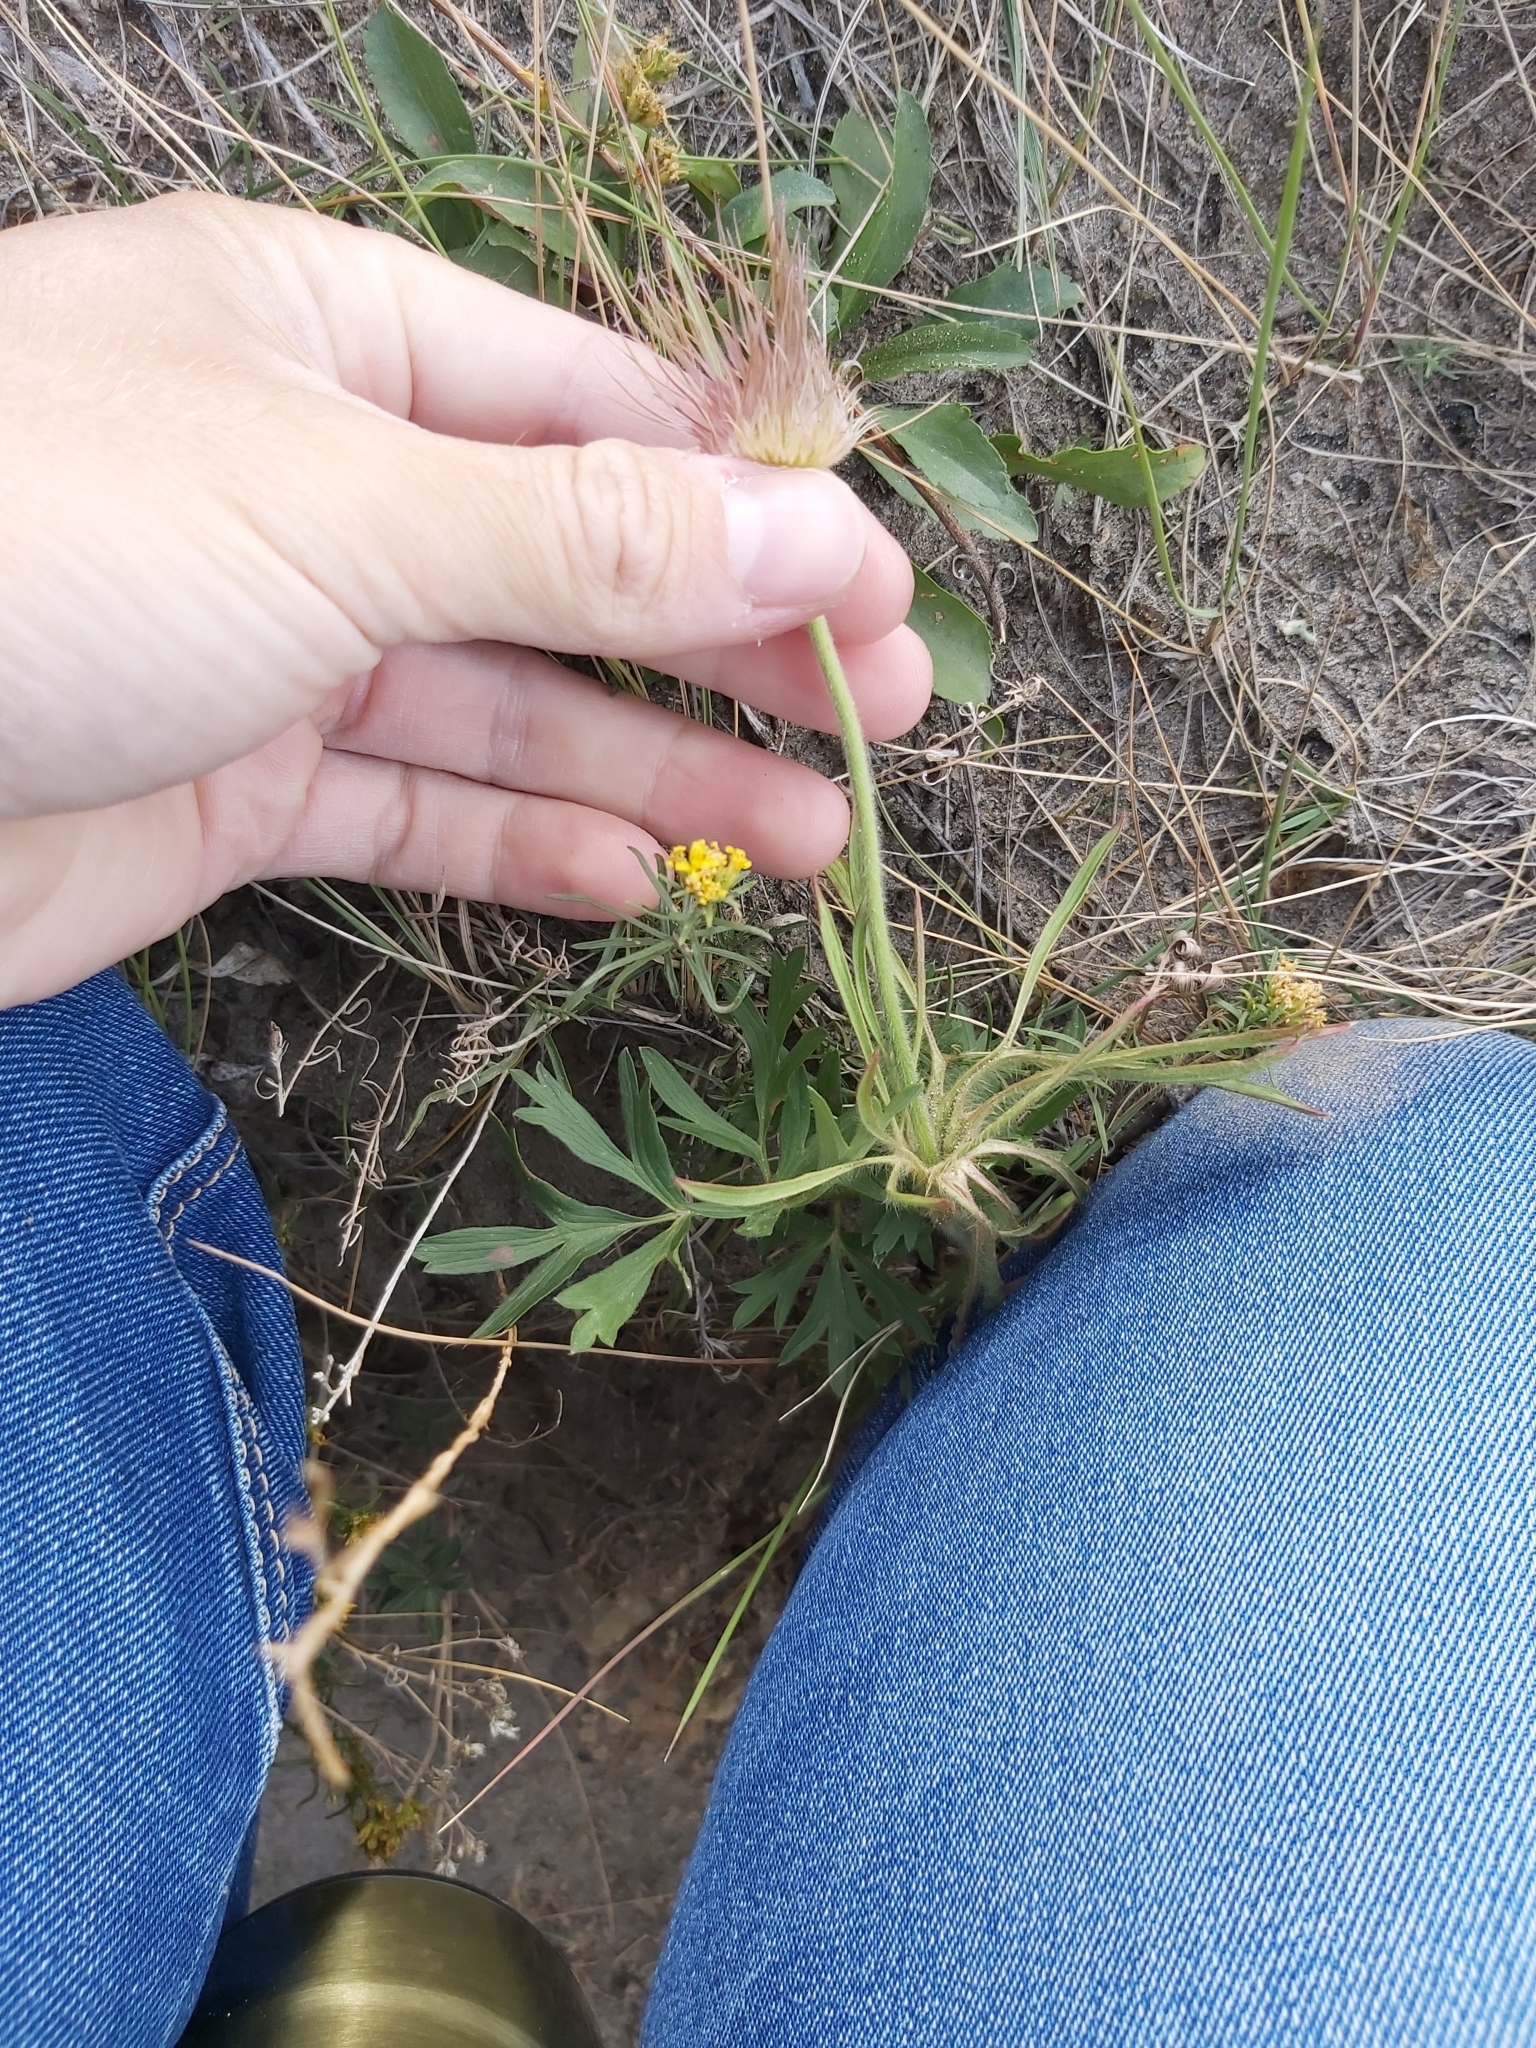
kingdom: Plantae
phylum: Tracheophyta
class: Magnoliopsida
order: Rosales
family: Rosaceae
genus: Geum
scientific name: Geum triflorum
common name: Old man's whiskers
